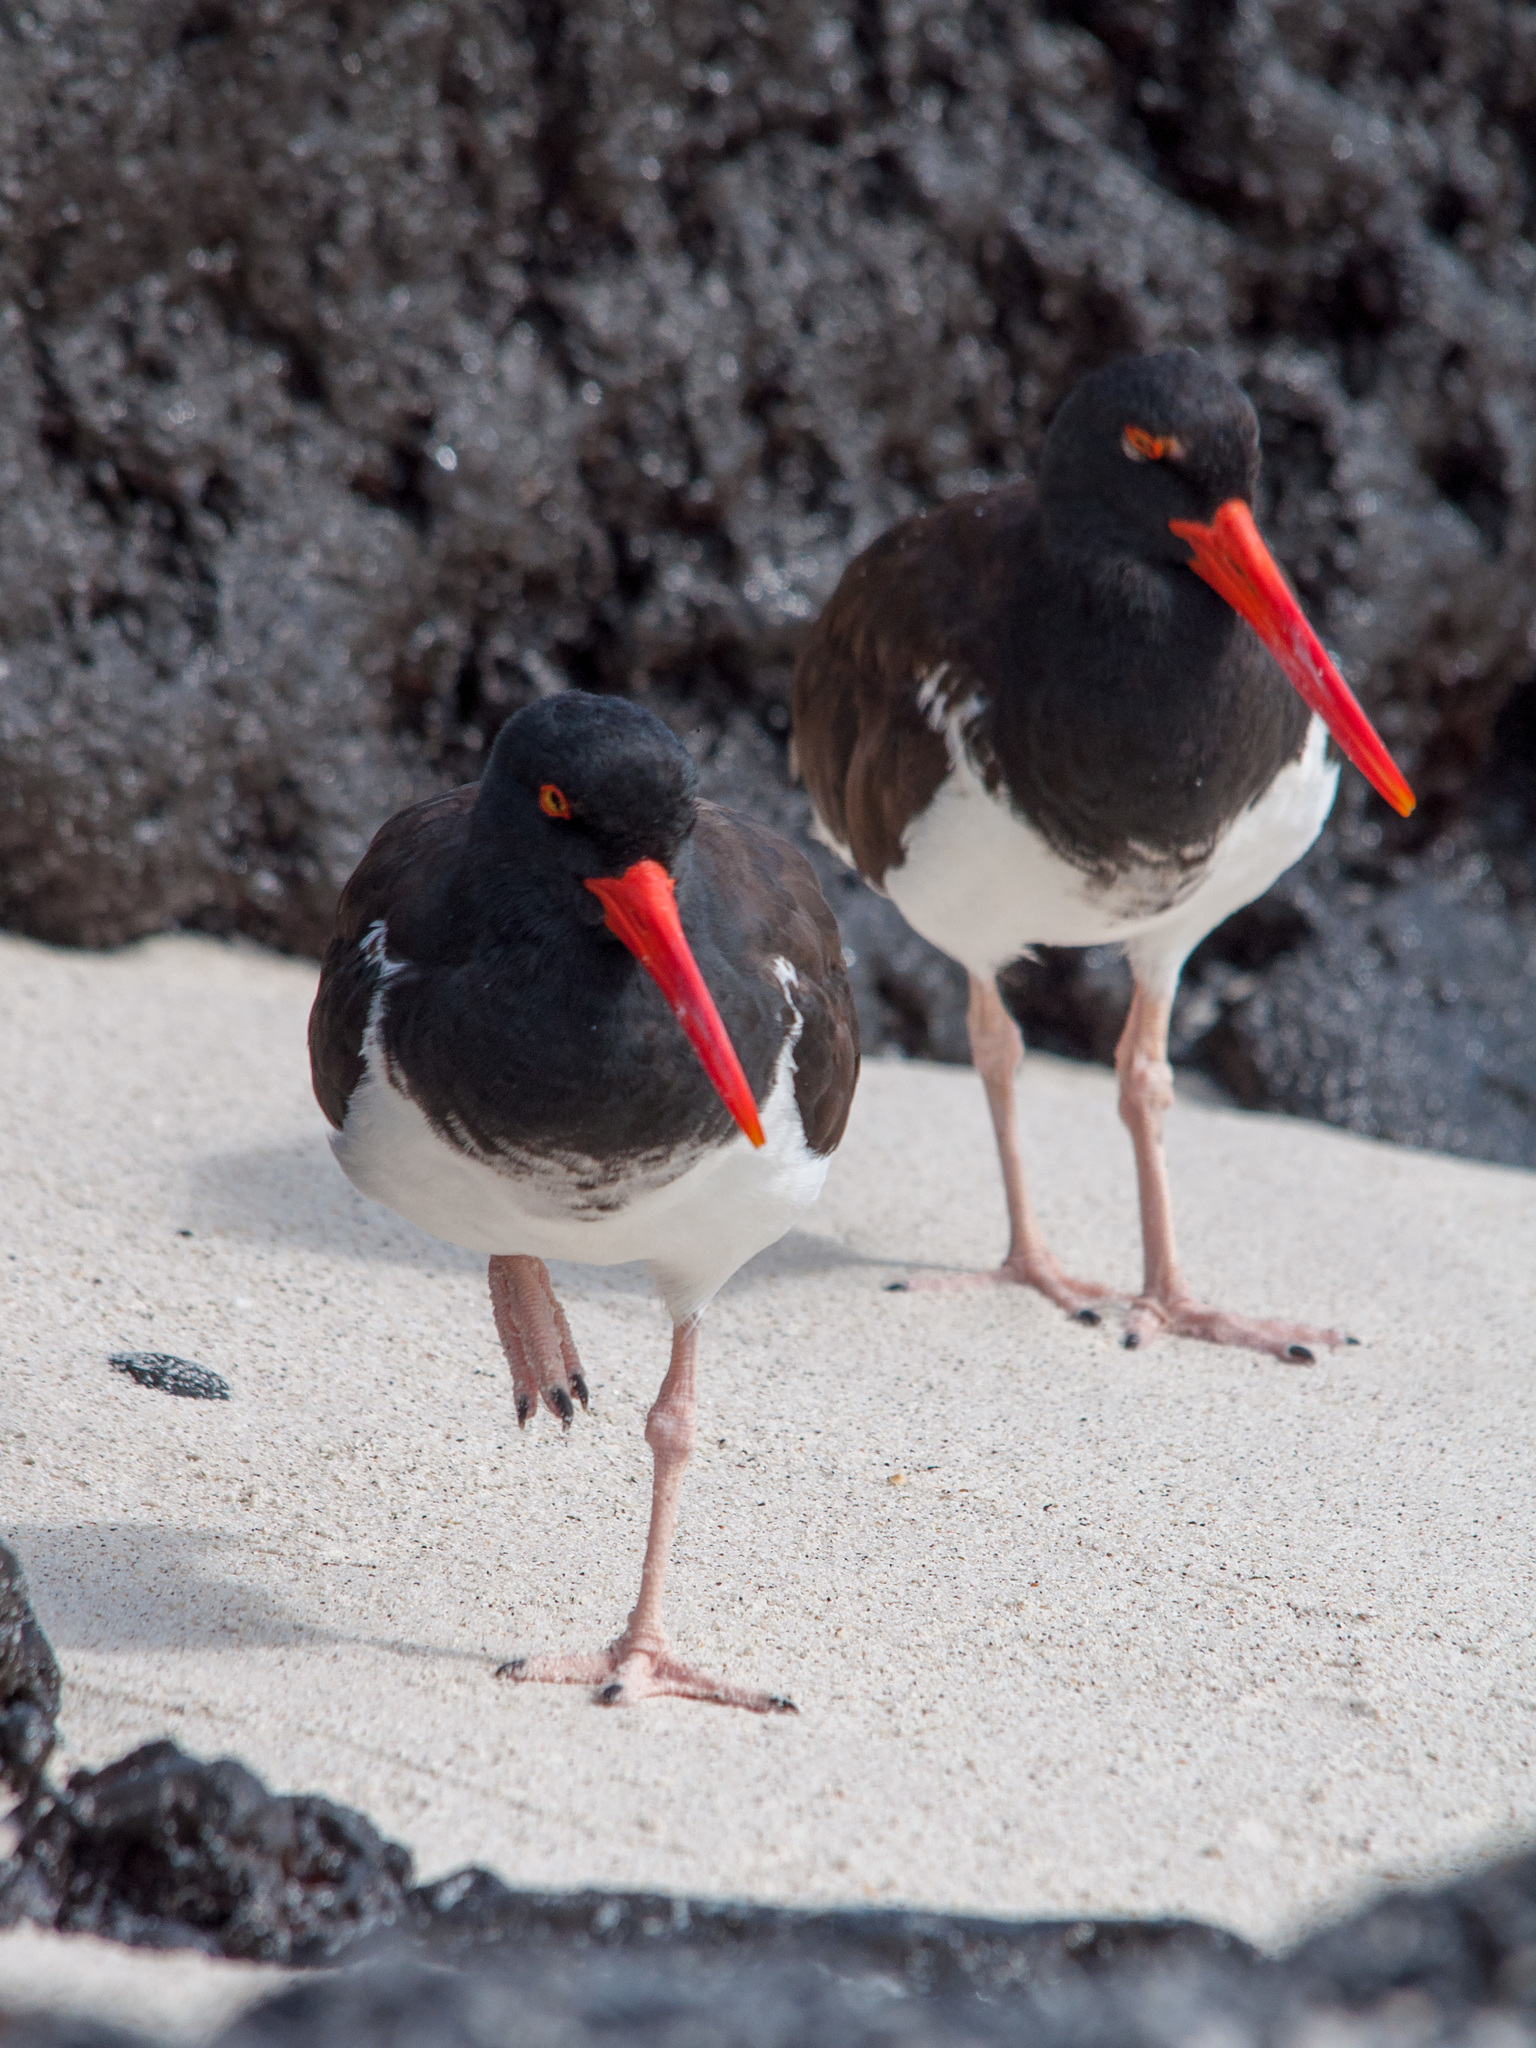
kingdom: Animalia
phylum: Chordata
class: Aves
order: Charadriiformes
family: Haematopodidae
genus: Haematopus
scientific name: Haematopus palliatus
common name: American oystercatcher
